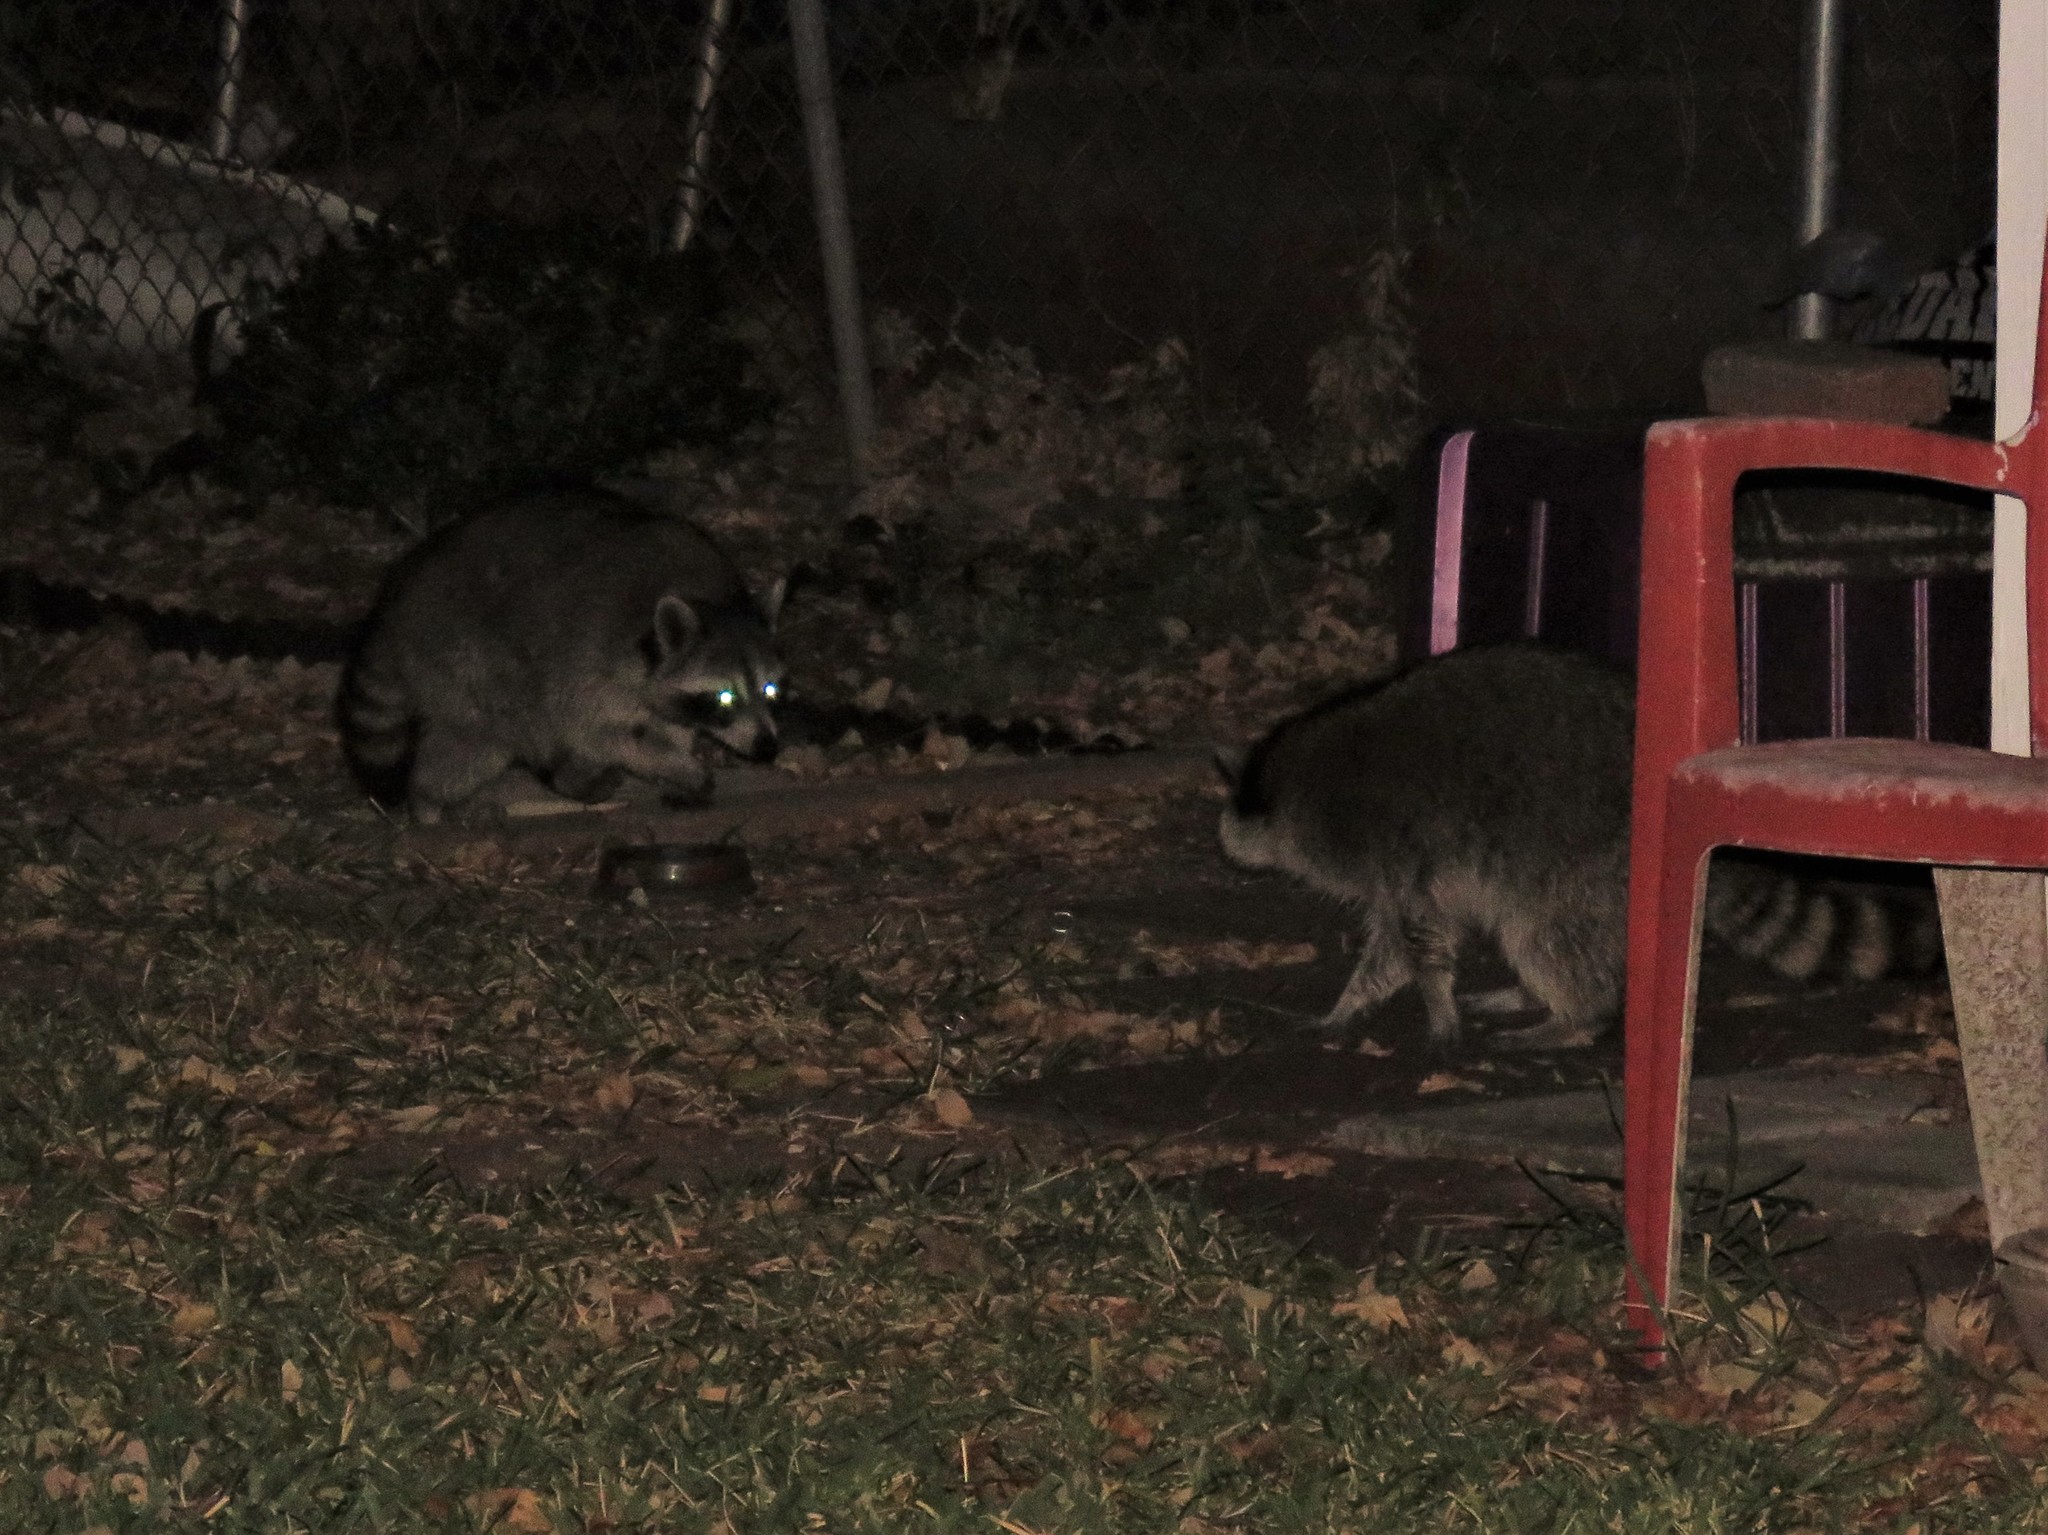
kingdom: Animalia
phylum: Chordata
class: Mammalia
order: Carnivora
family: Procyonidae
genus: Procyon
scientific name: Procyon lotor
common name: Raccoon
